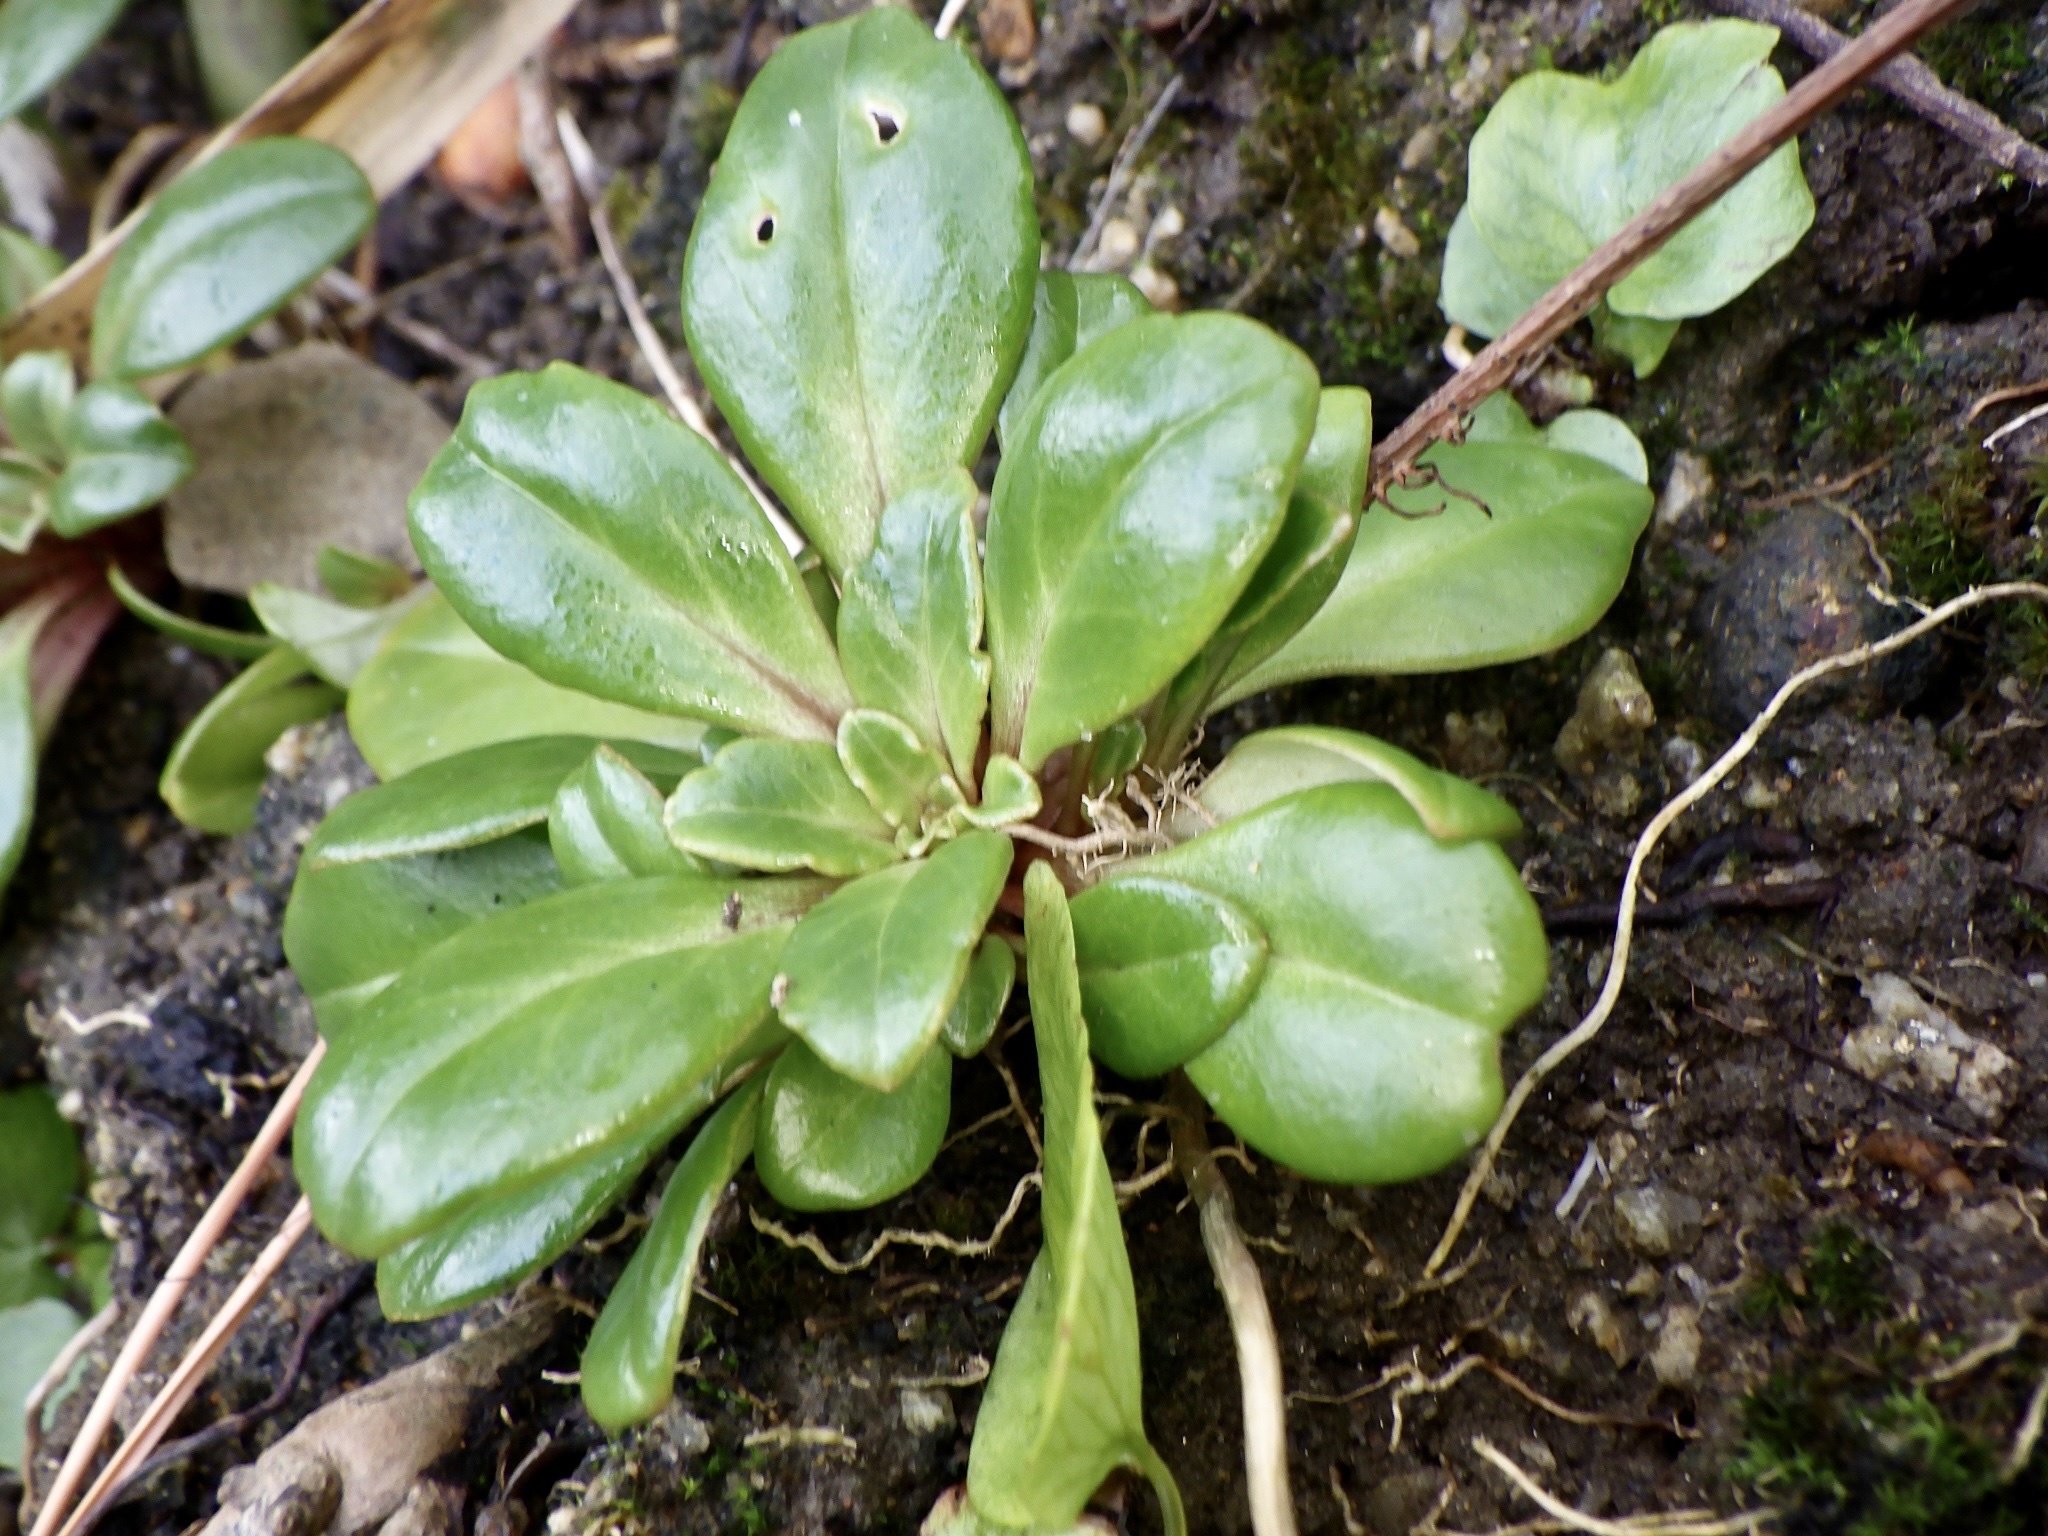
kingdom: Plantae
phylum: Tracheophyta
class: Magnoliopsida
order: Ericales
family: Primulaceae
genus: Lysimachia
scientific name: Lysimachia mauritiana
